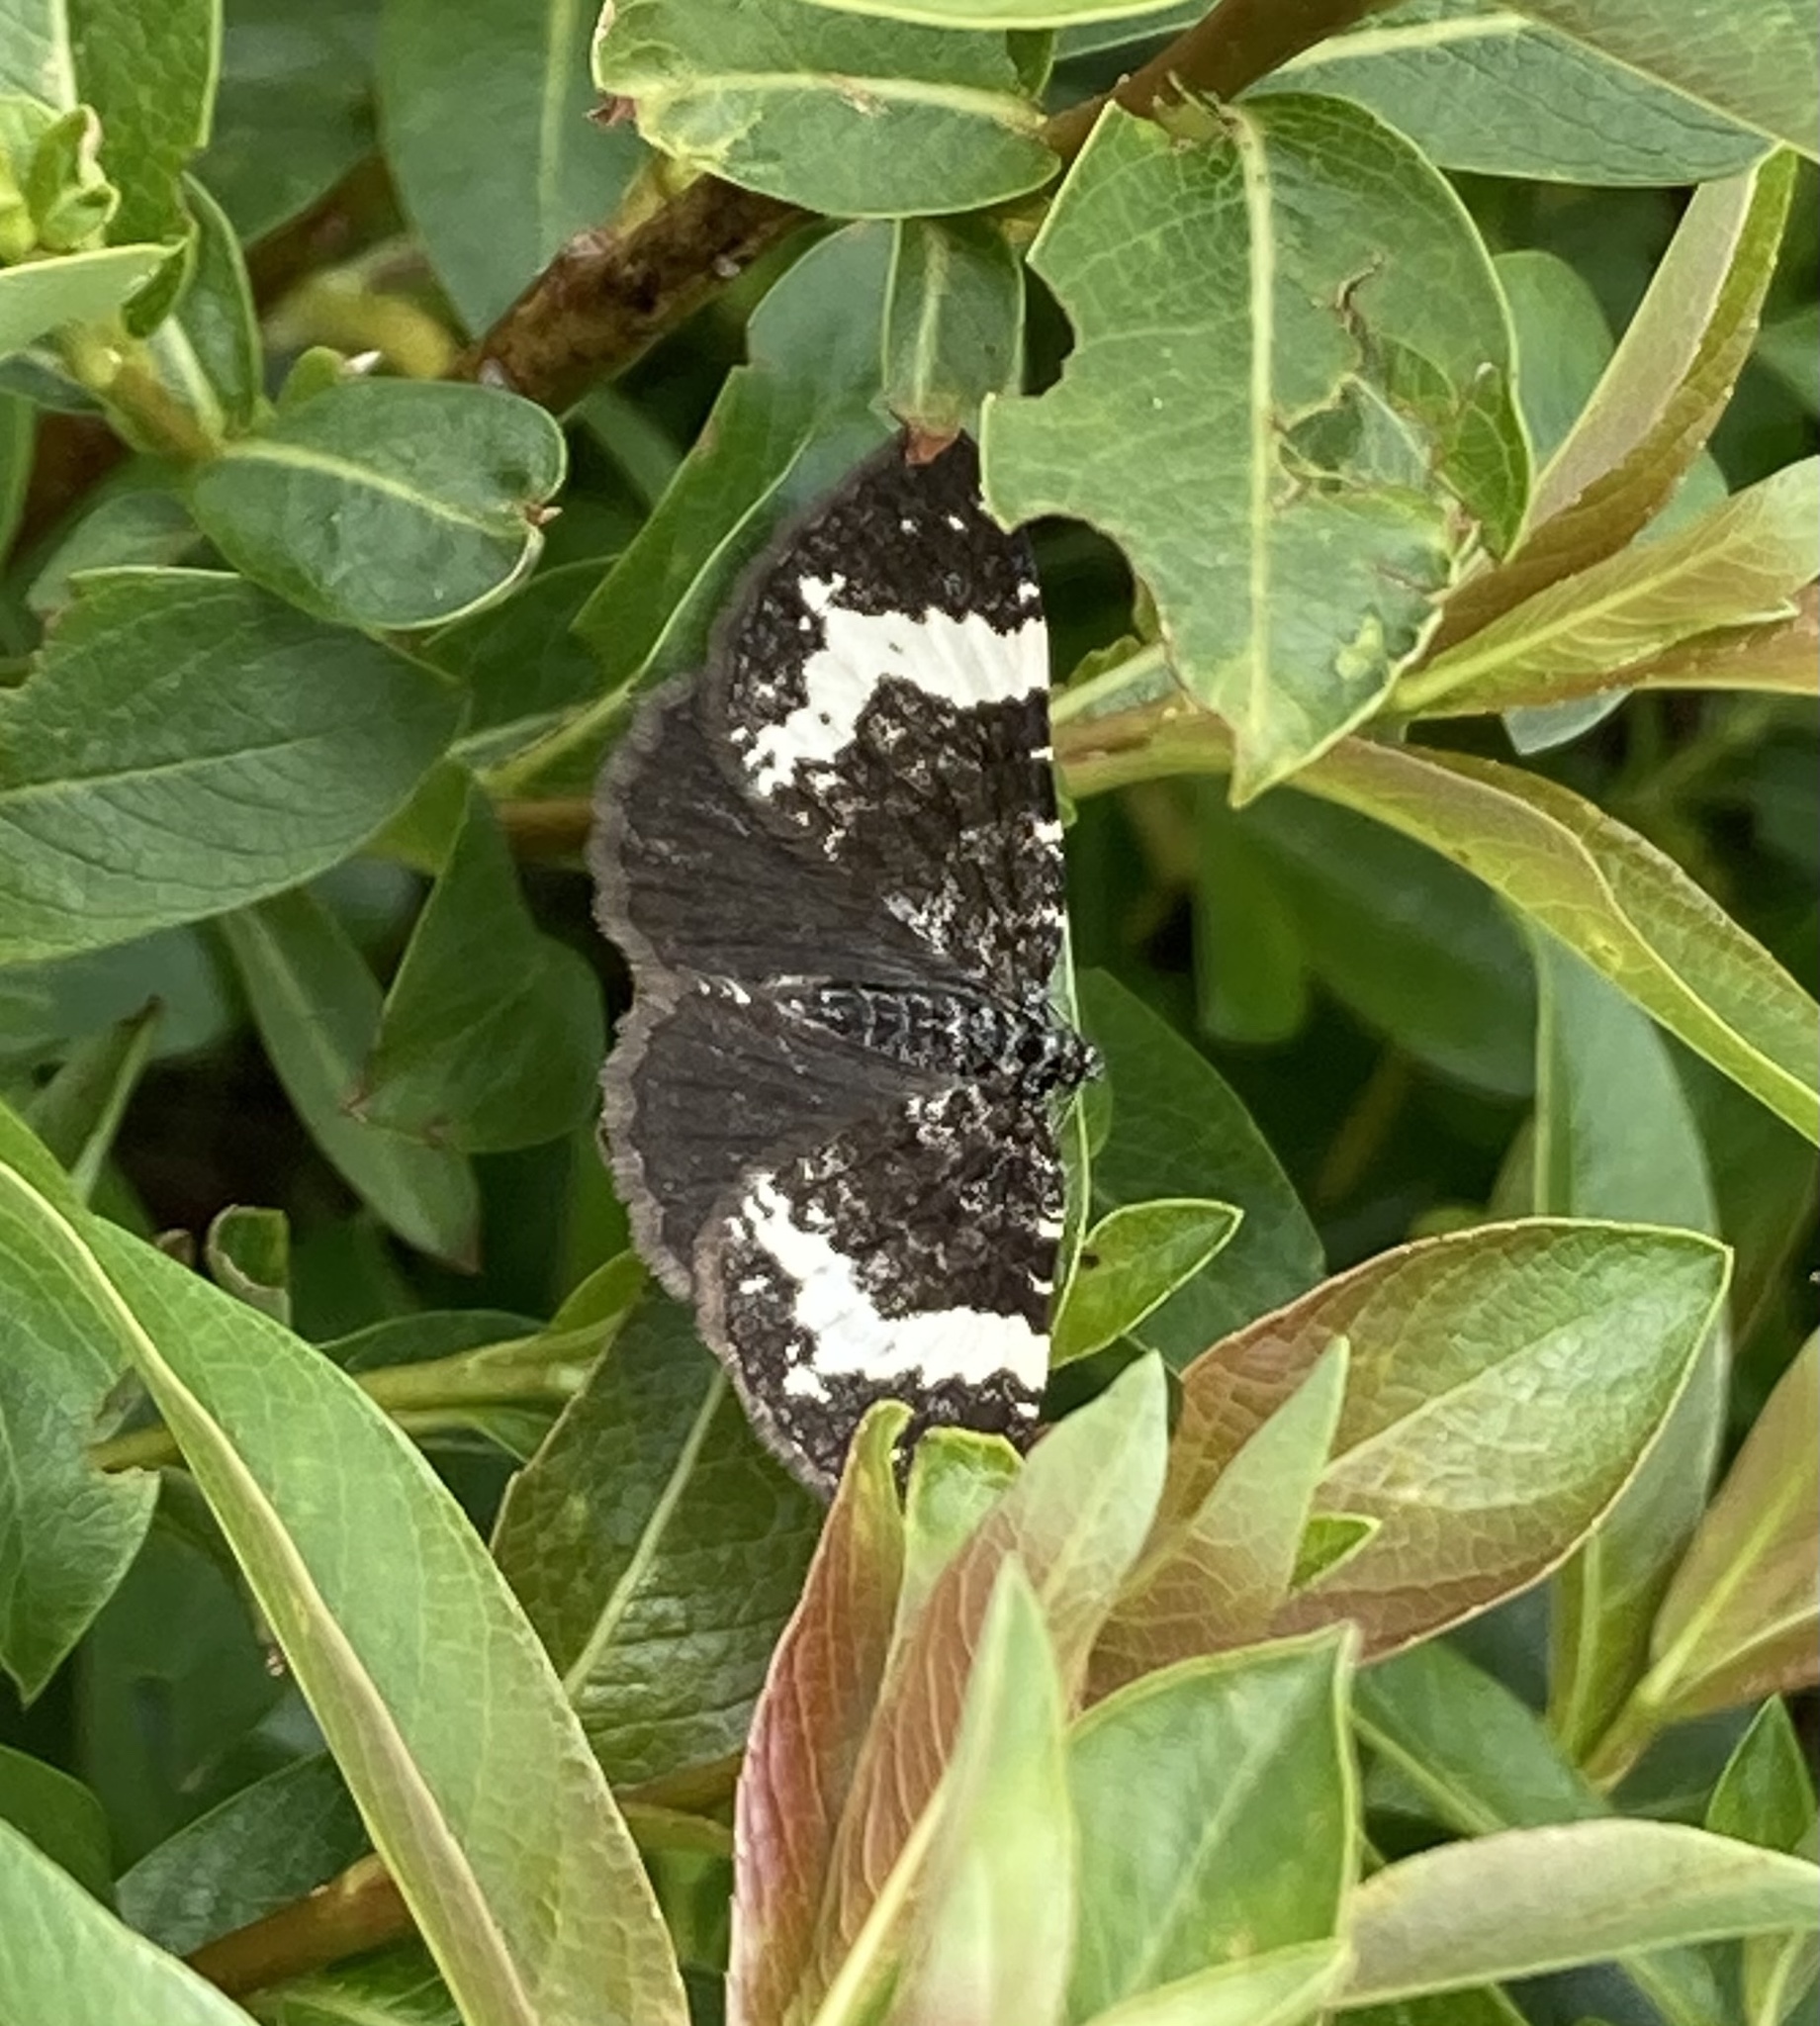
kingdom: Animalia
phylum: Arthropoda
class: Insecta
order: Lepidoptera
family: Geometridae
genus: Rheumaptera
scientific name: Rheumaptera
